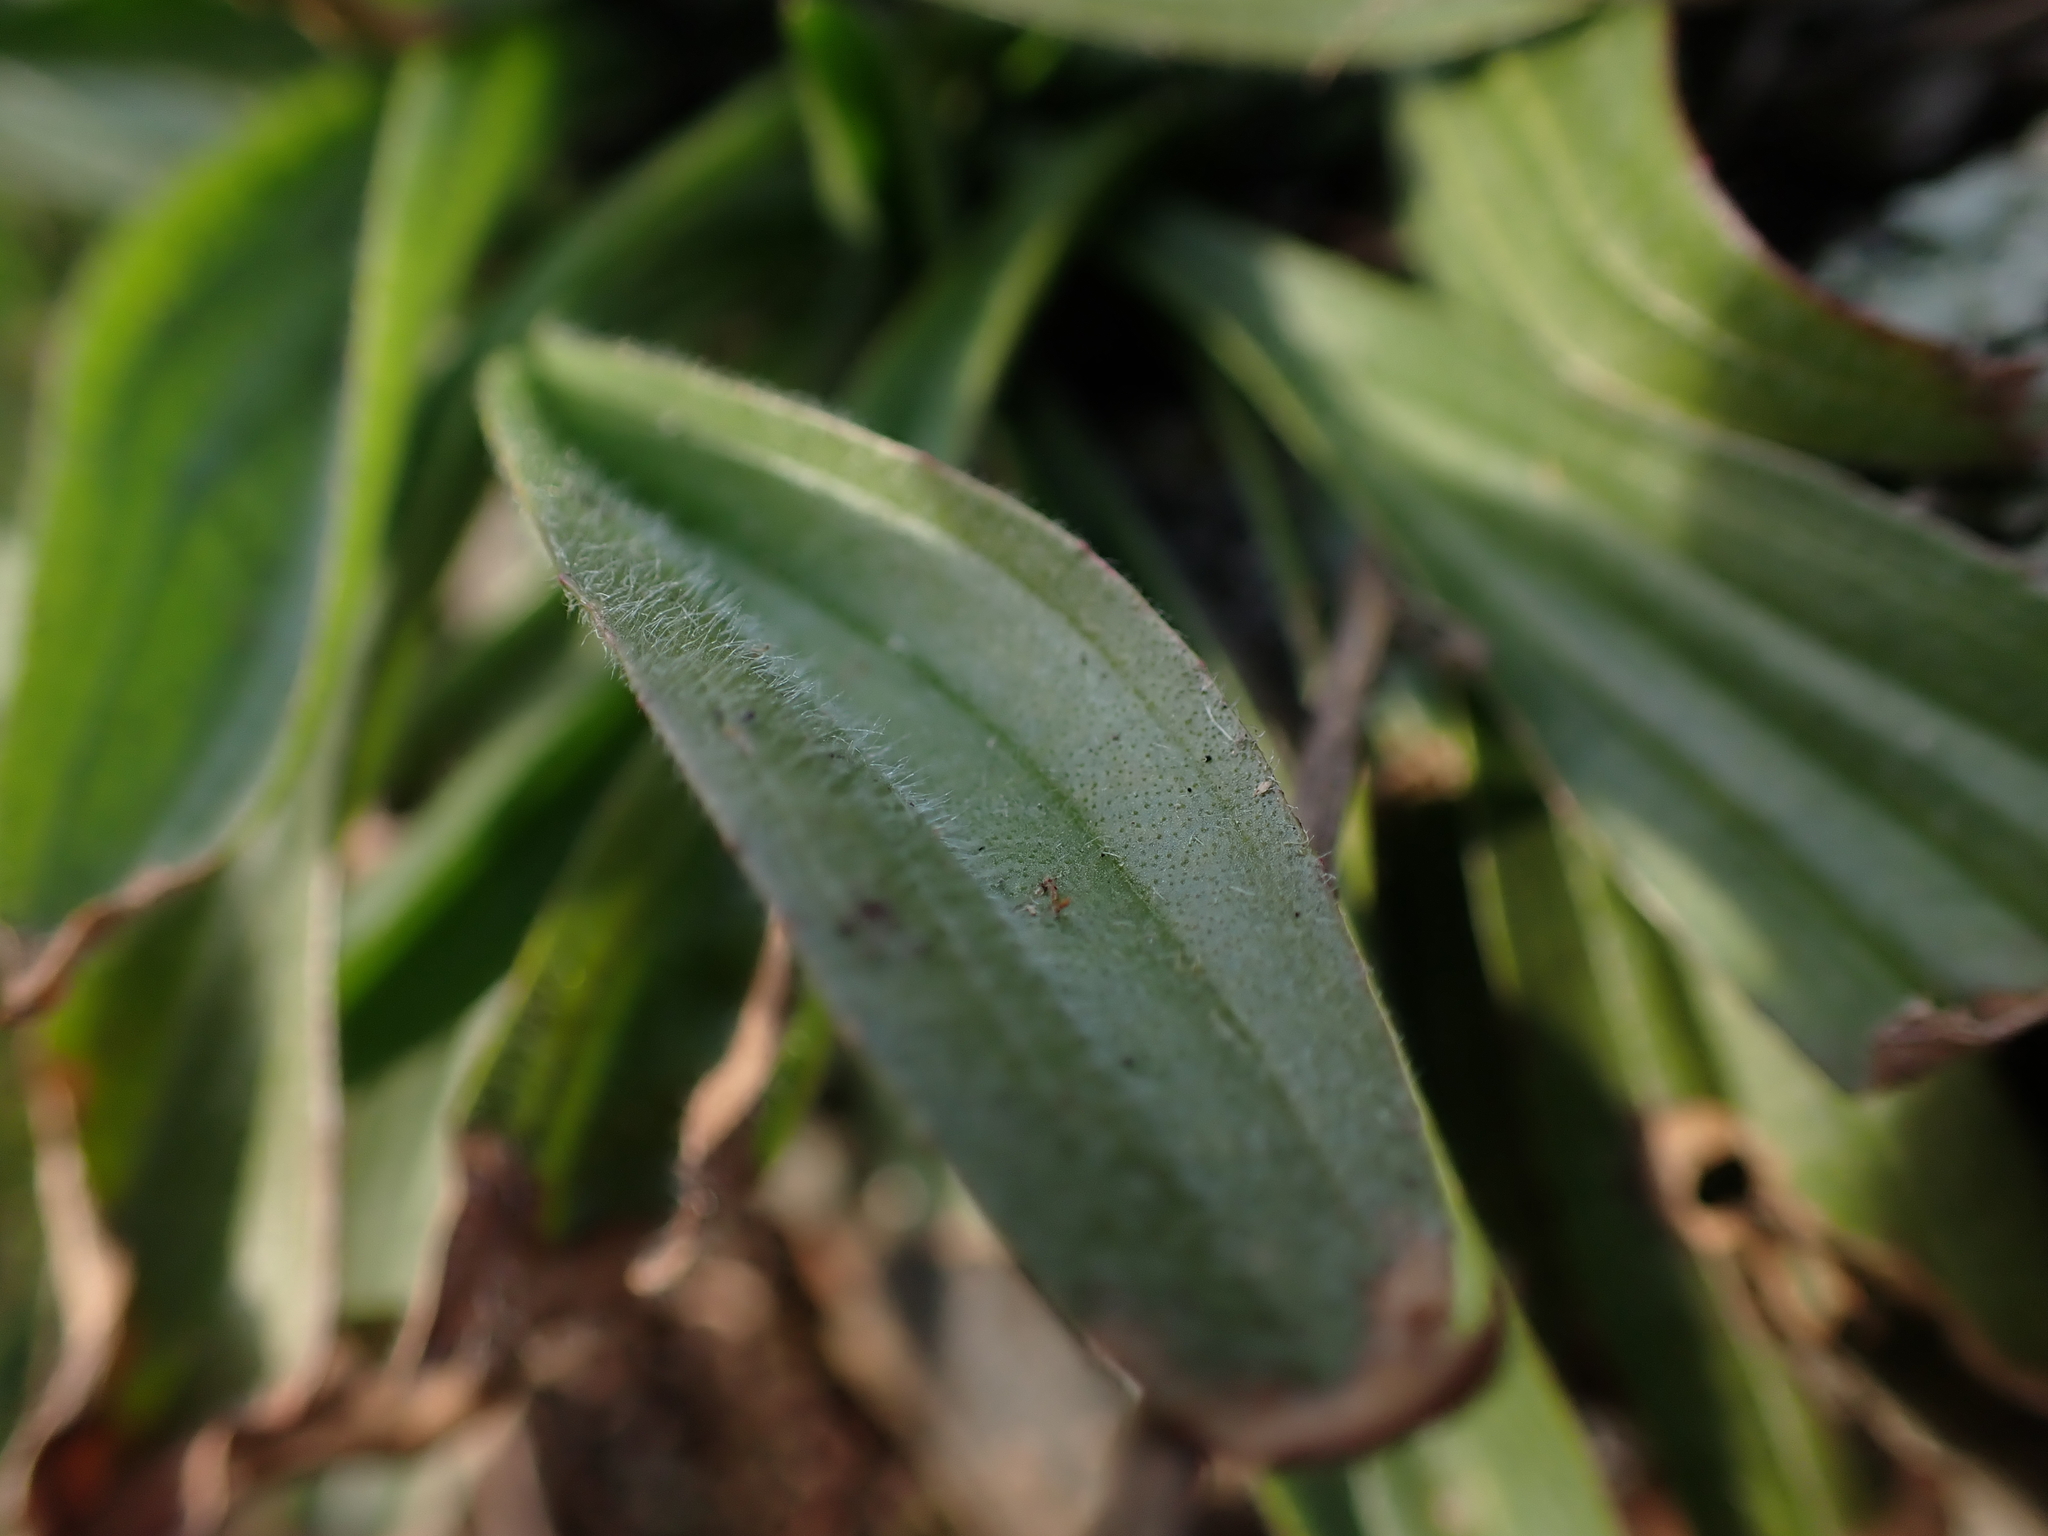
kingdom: Plantae
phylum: Tracheophyta
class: Magnoliopsida
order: Lamiales
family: Plantaginaceae
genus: Plantago
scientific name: Plantago lanceolata
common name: Ribwort plantain
